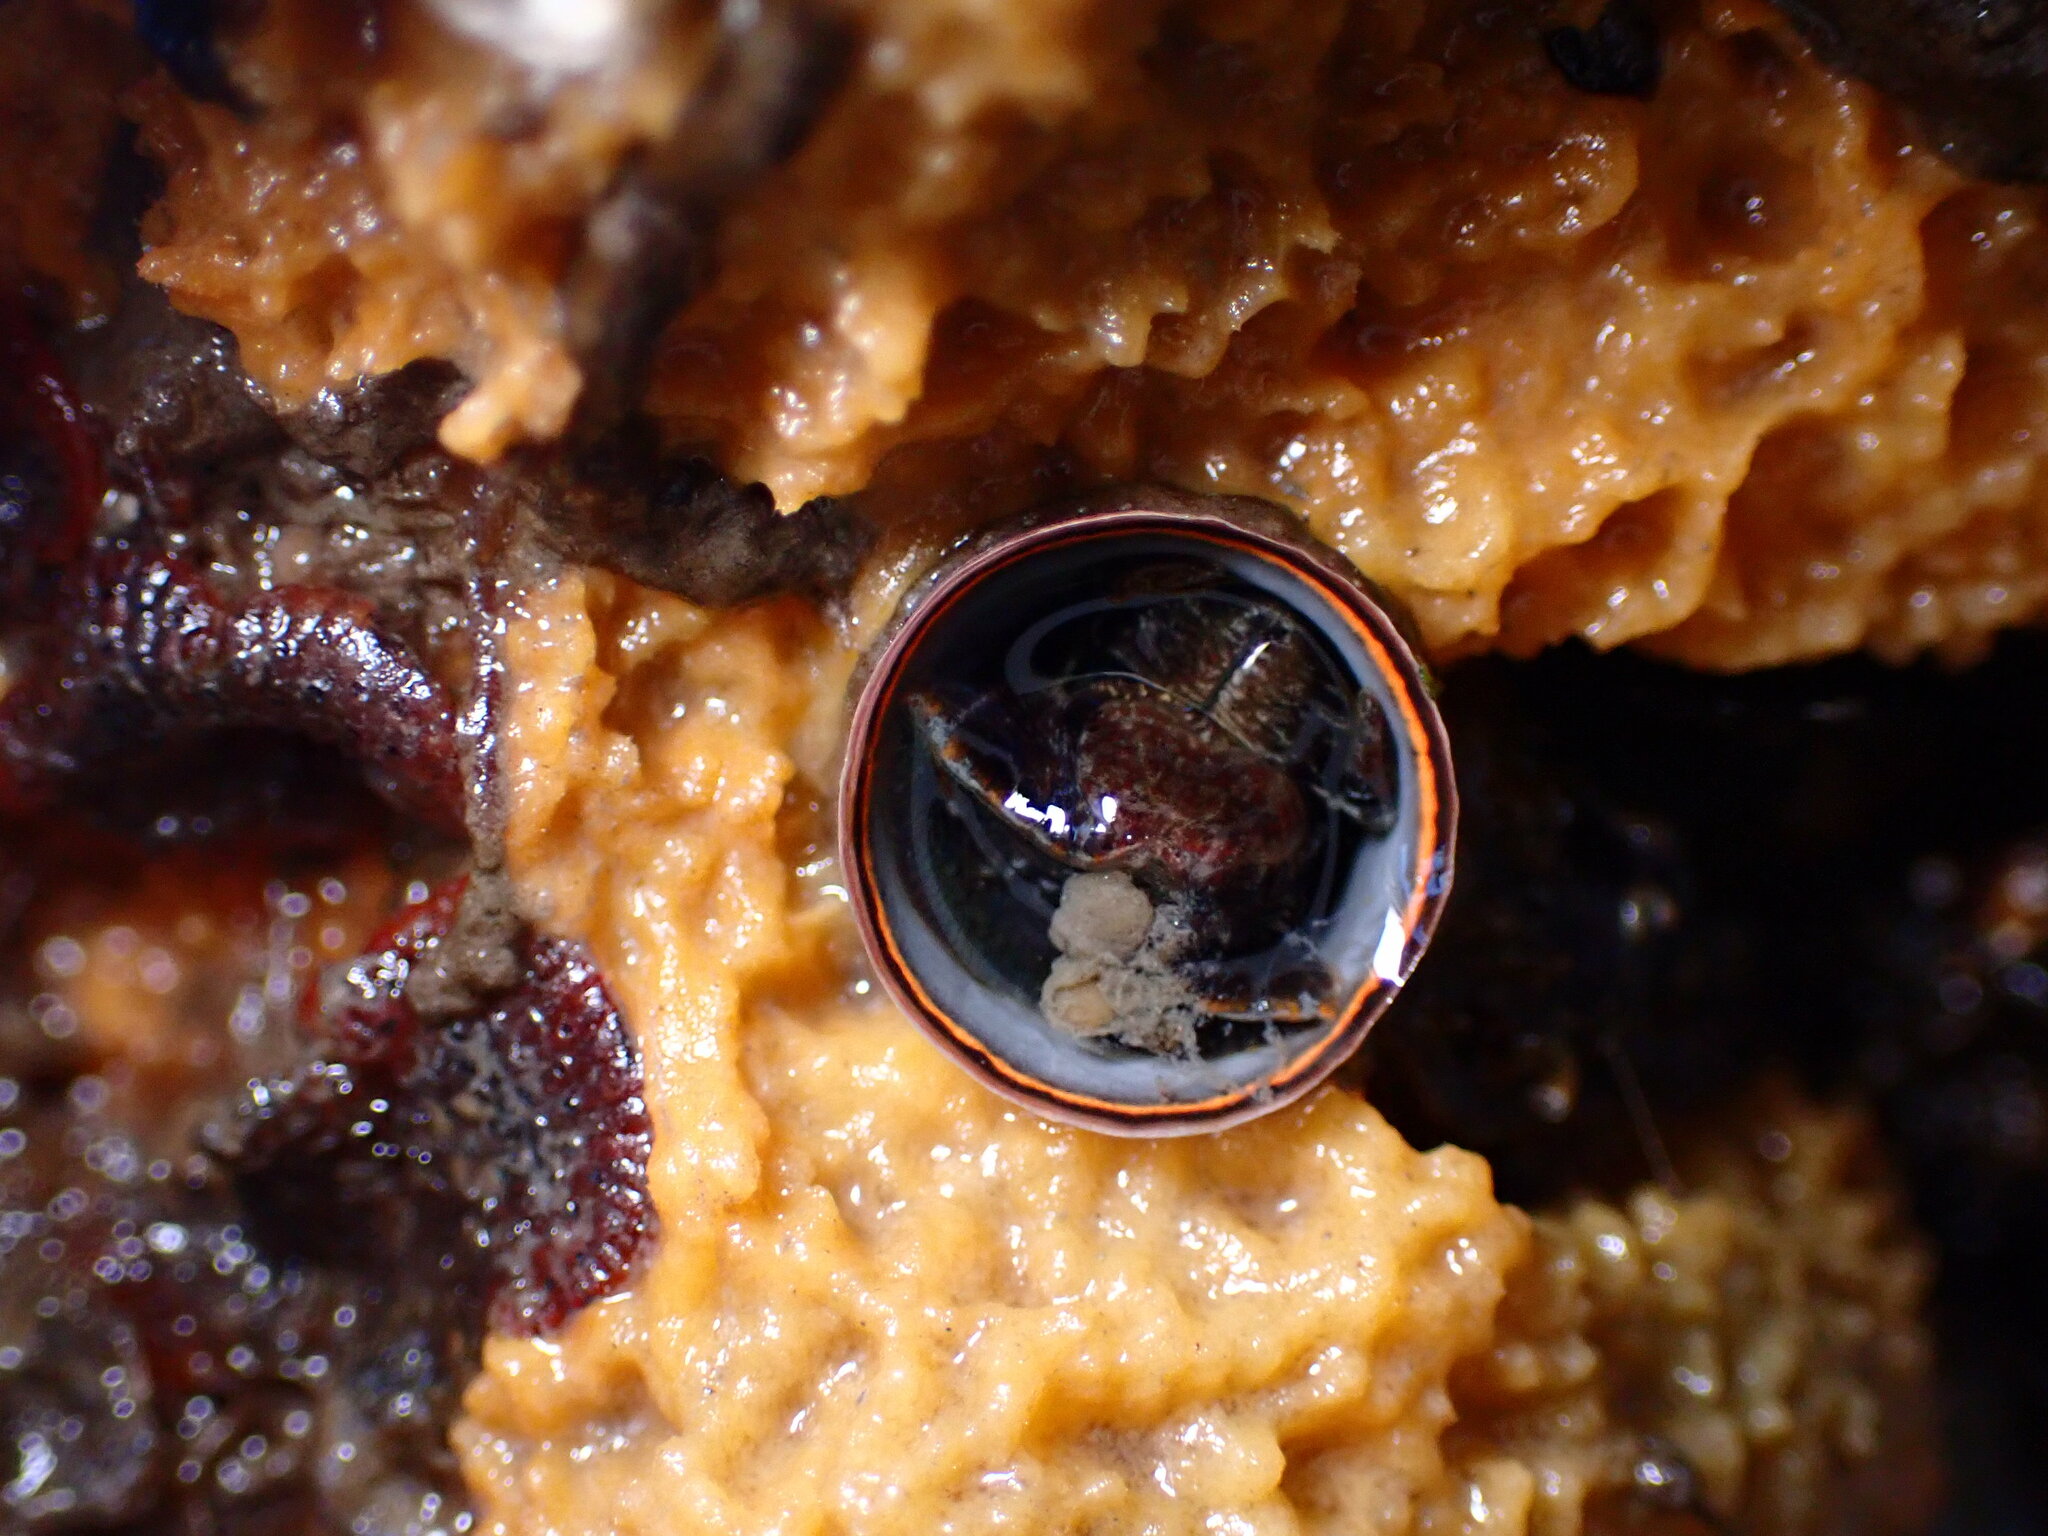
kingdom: Animalia
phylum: Mollusca
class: Gastropoda
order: Littorinimorpha
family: Vermetidae
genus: Thylacodes
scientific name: Thylacodes squamigerus
